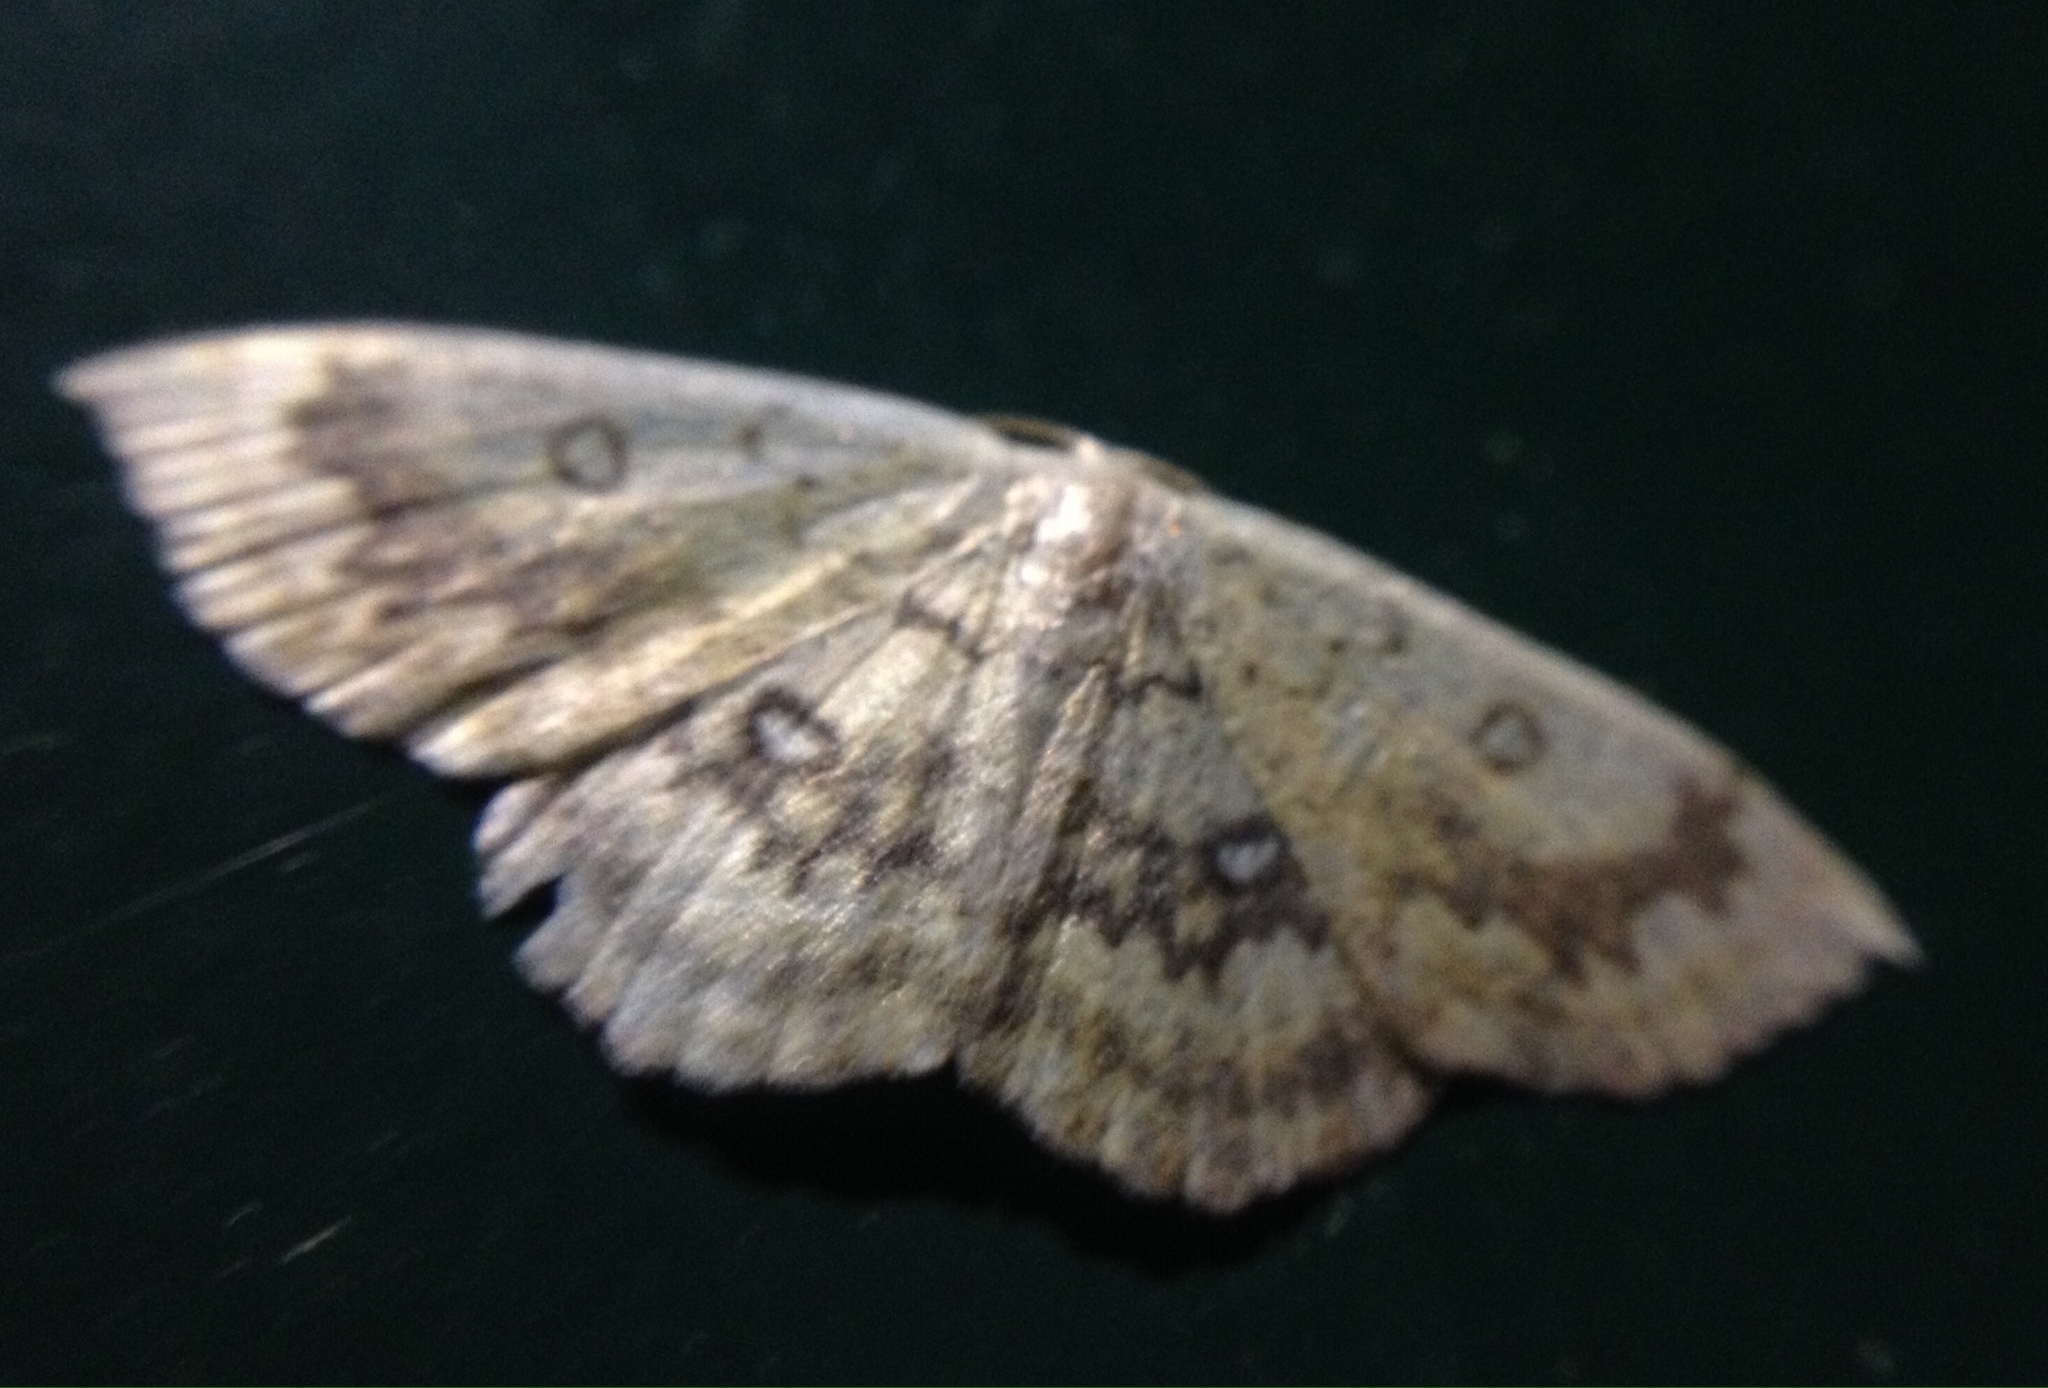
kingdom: Animalia
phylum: Arthropoda
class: Insecta
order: Lepidoptera
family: Geometridae
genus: Cyclophora
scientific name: Cyclophora annularia
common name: Mocha
